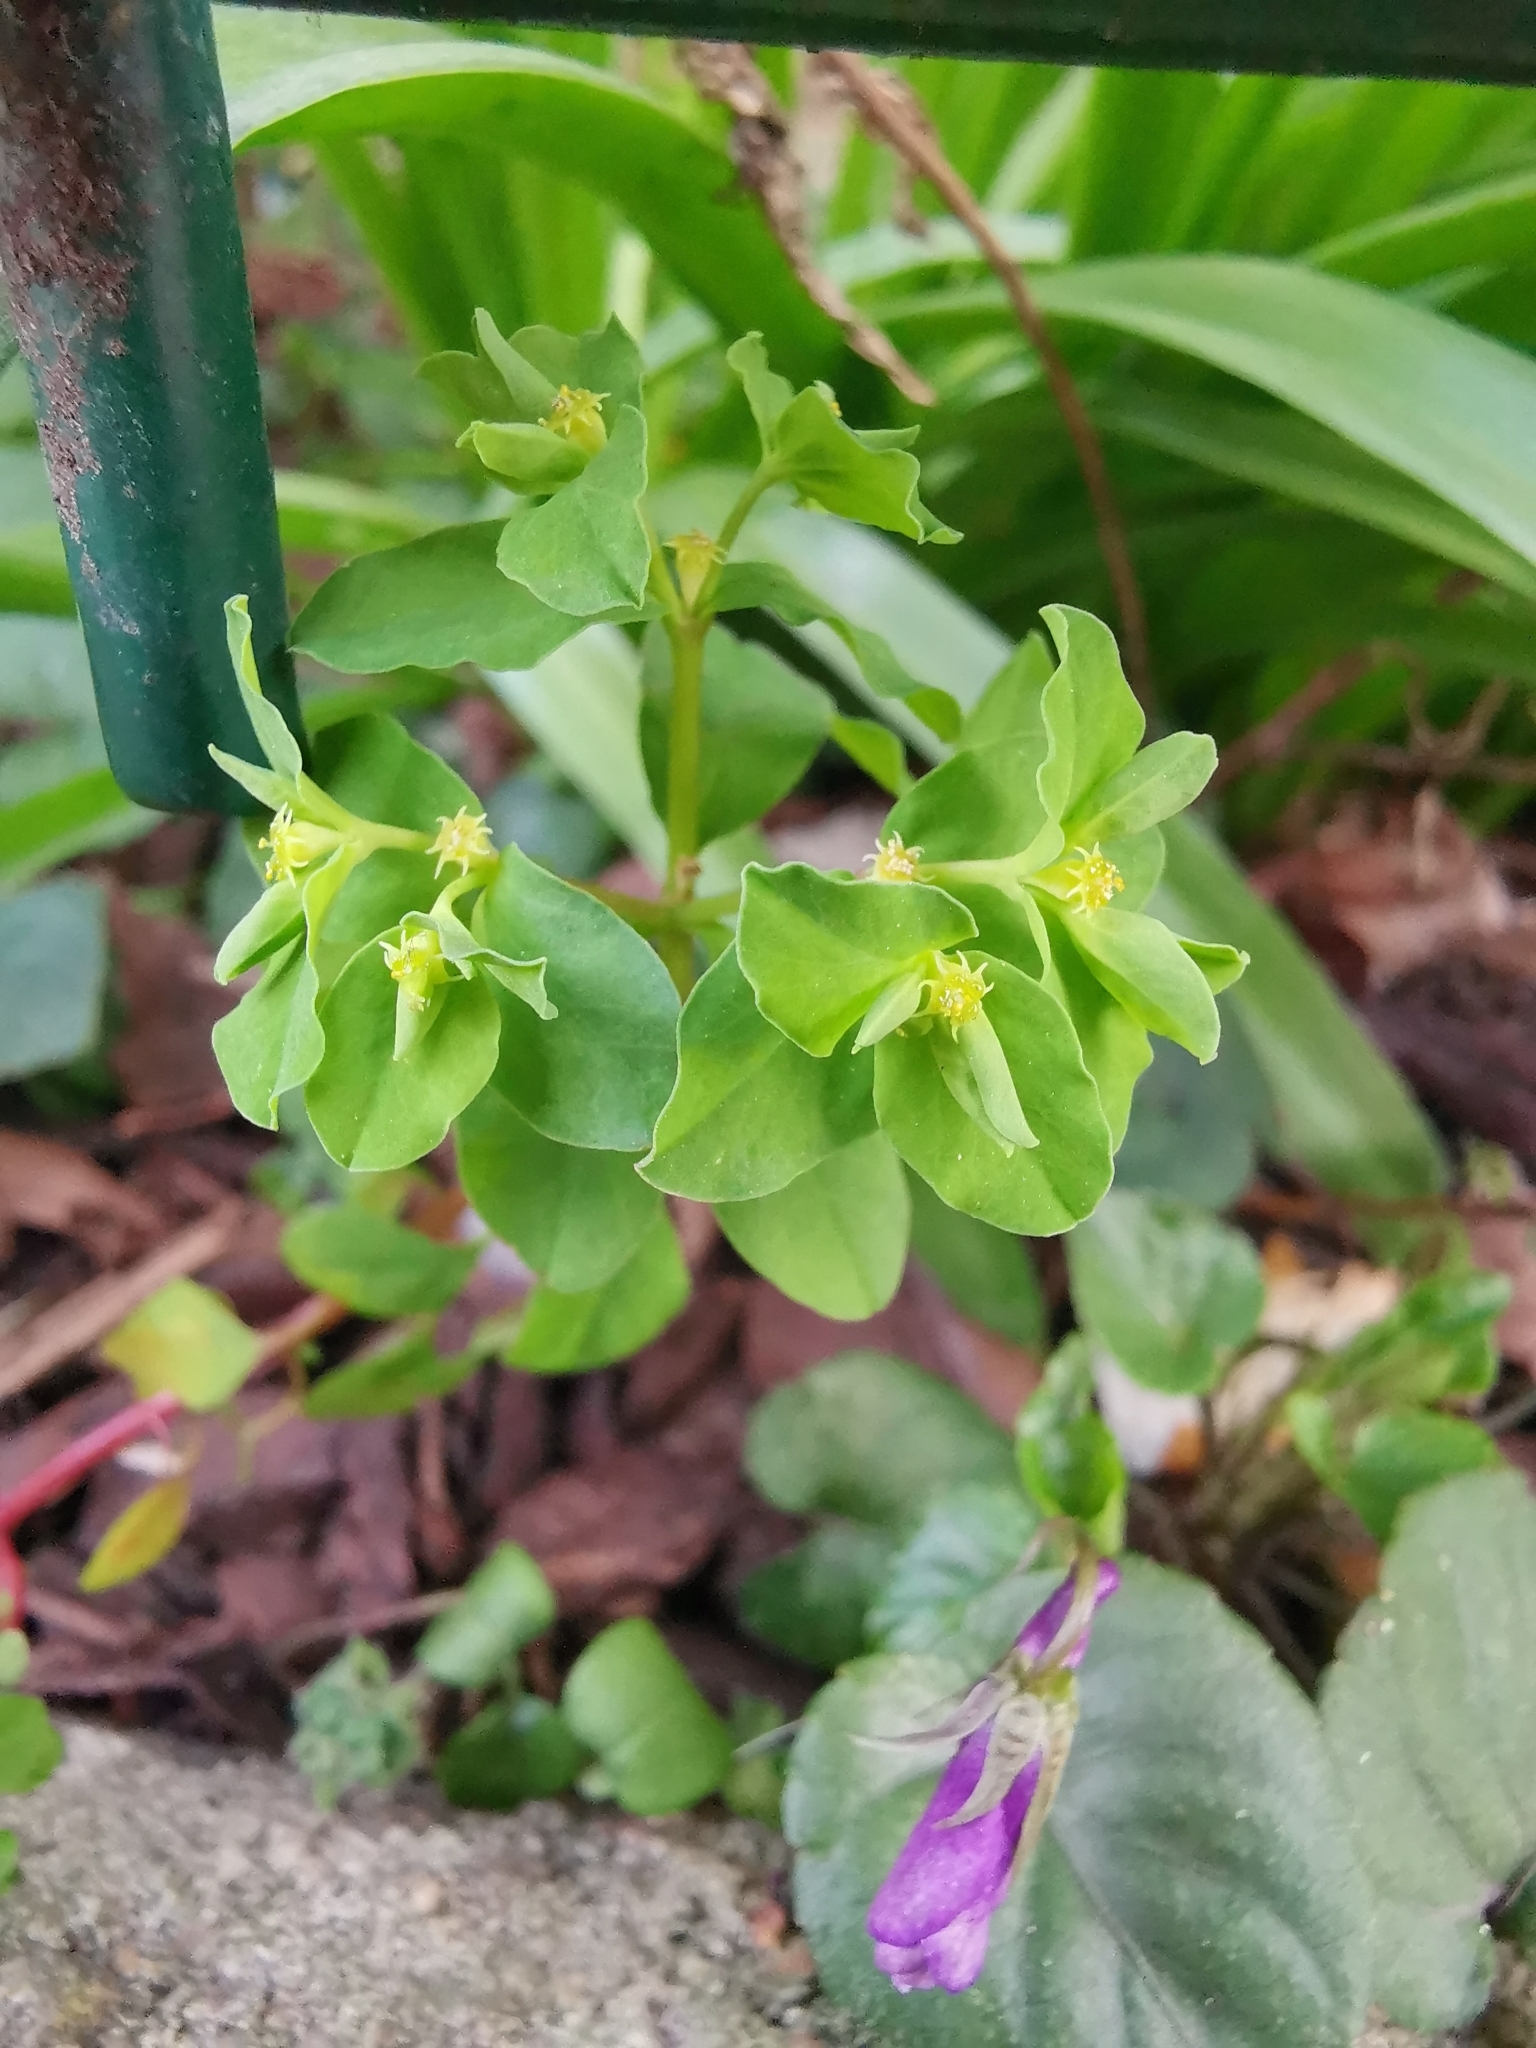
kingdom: Plantae
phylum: Tracheophyta
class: Magnoliopsida
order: Malpighiales
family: Euphorbiaceae
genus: Euphorbia
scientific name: Euphorbia peplus
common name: Petty spurge
